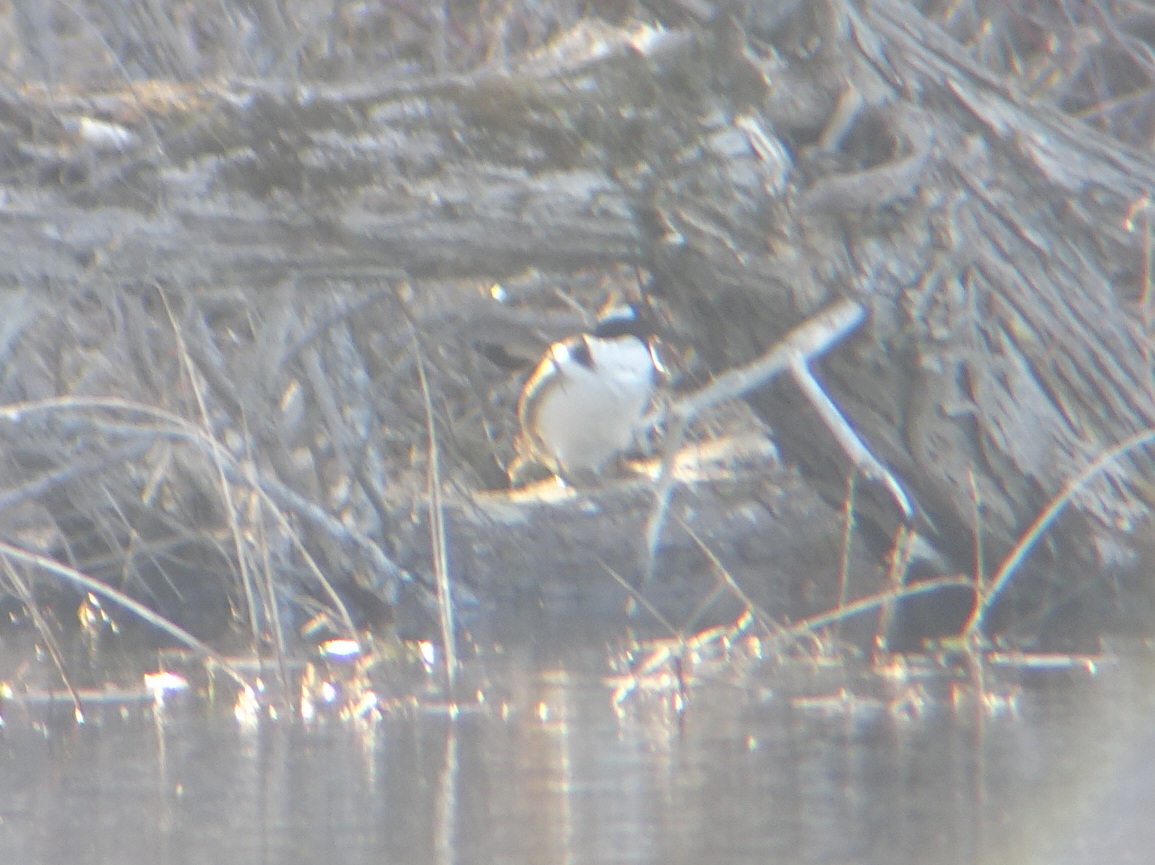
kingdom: Animalia
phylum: Chordata
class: Aves
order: Anseriformes
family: Anatidae
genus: Lophodytes
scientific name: Lophodytes cucullatus
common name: Hooded merganser
